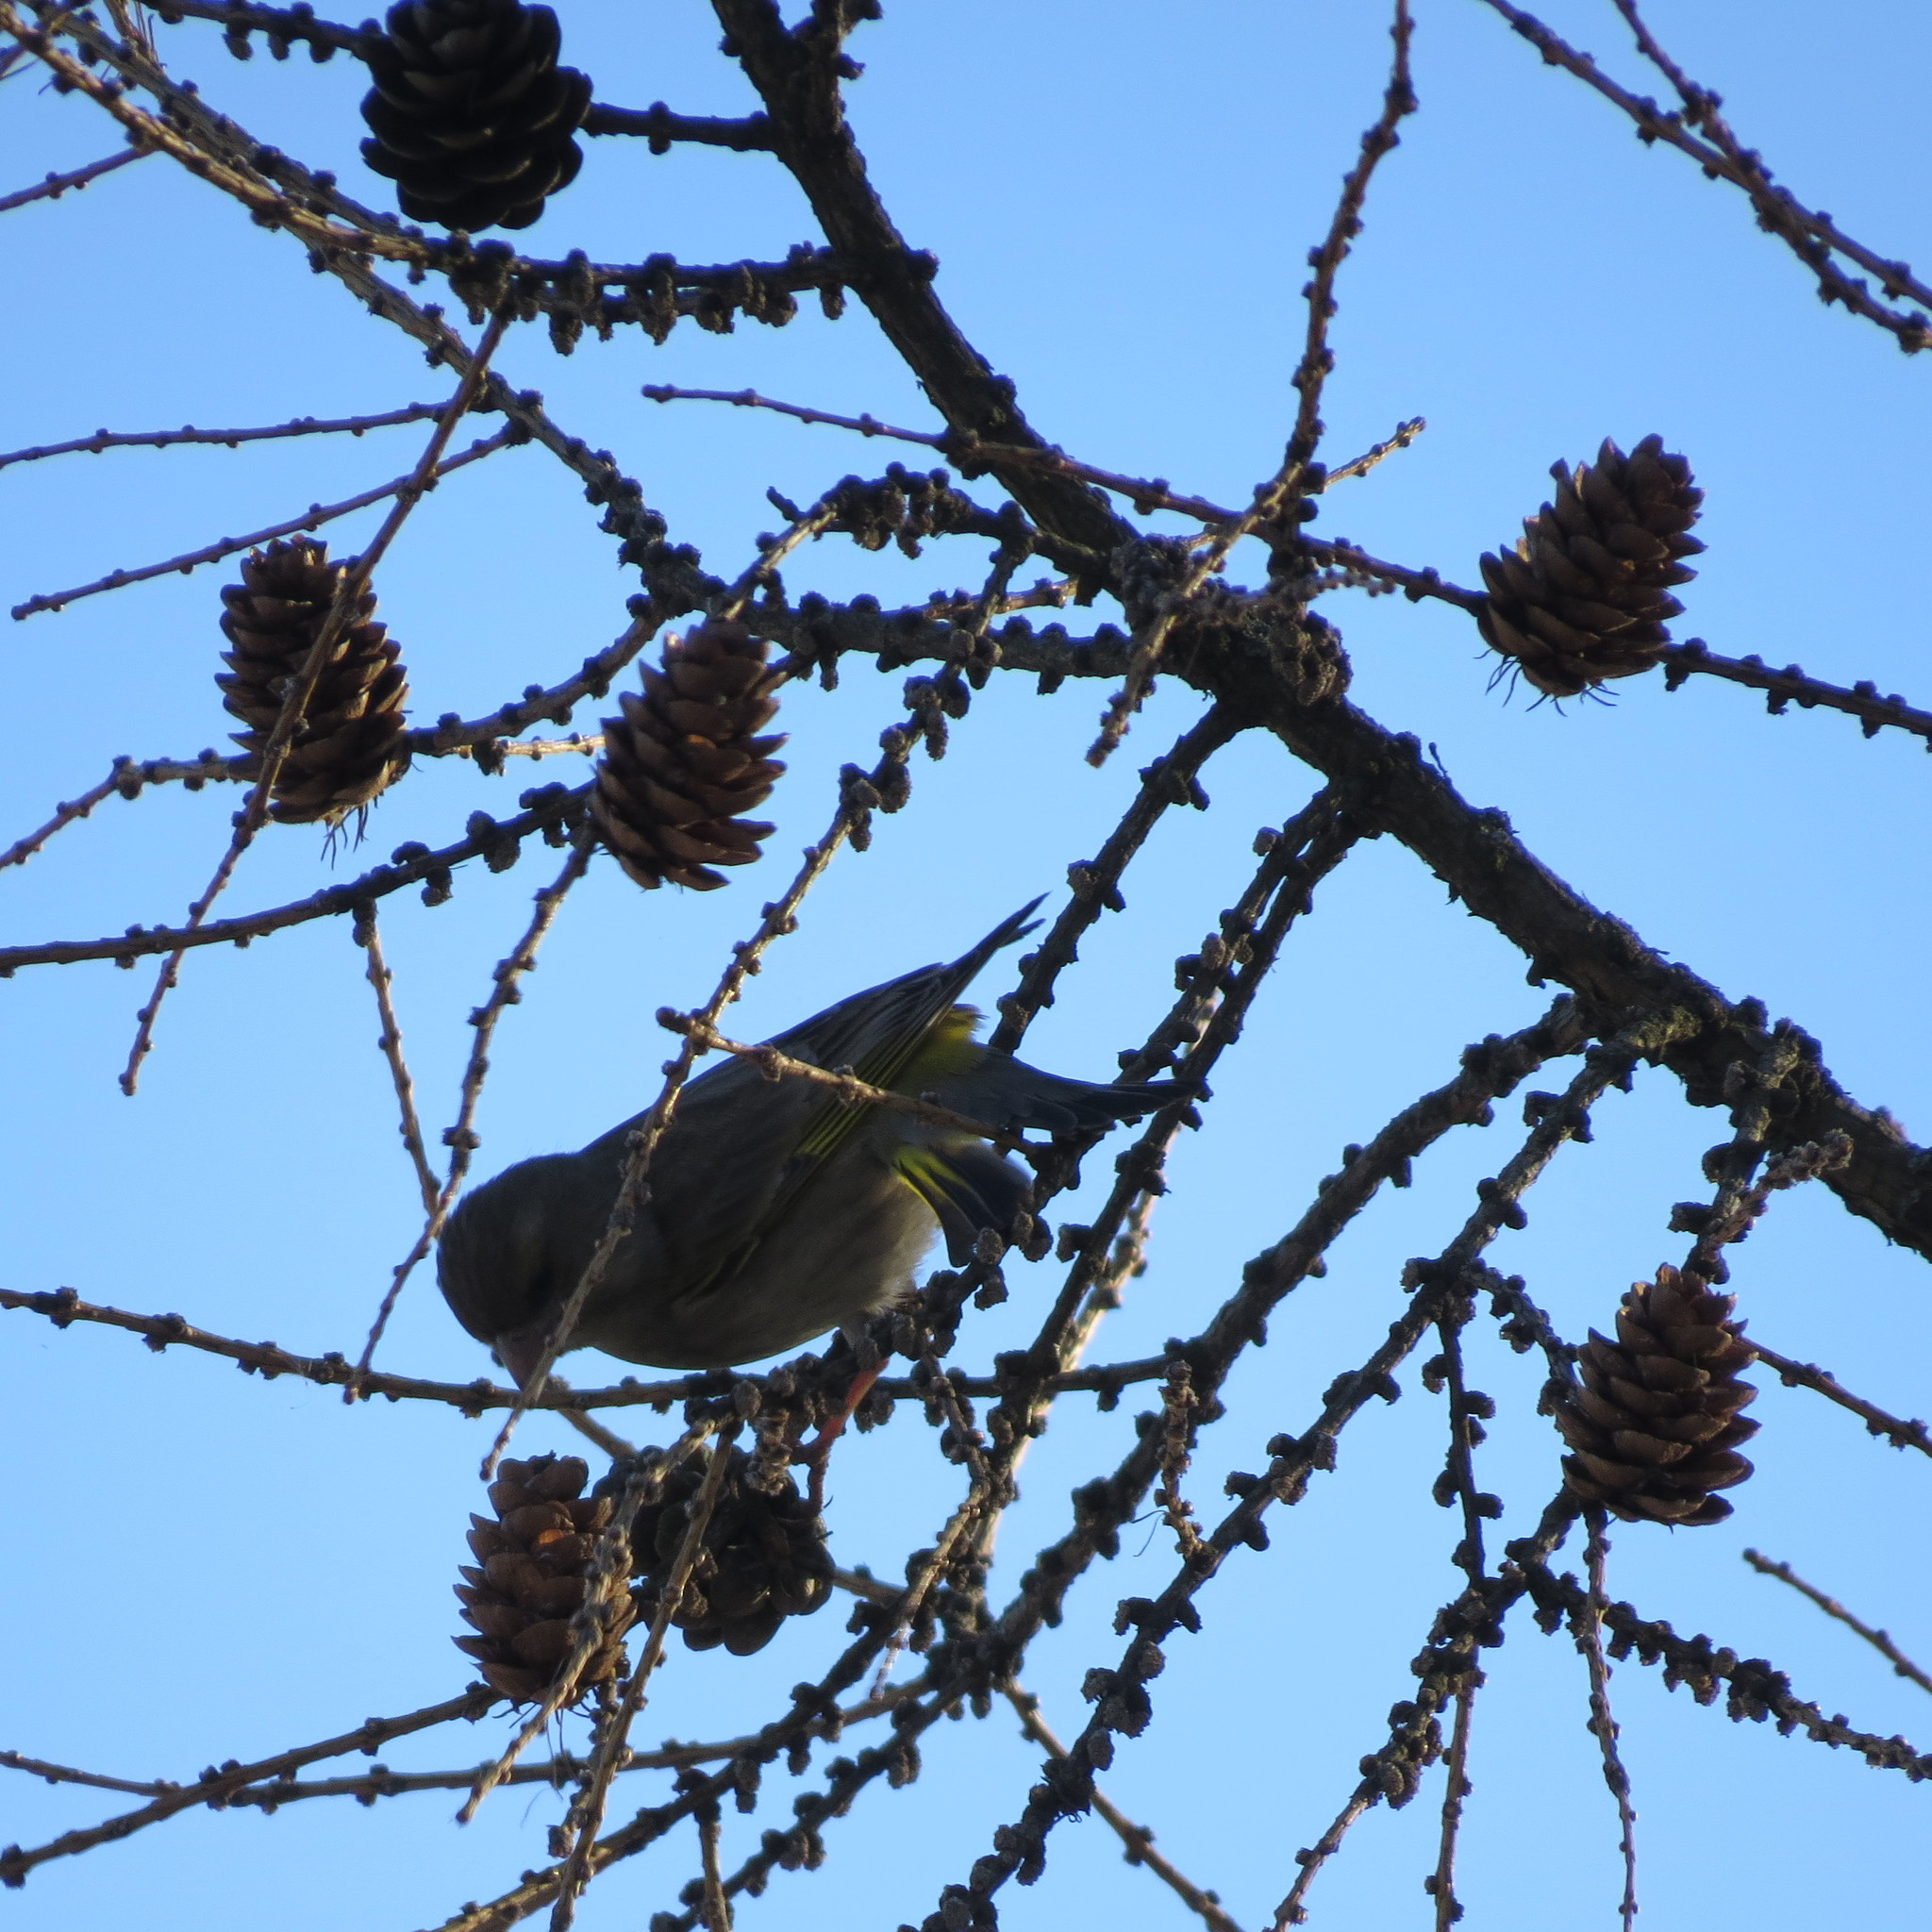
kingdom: Plantae
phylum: Tracheophyta
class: Liliopsida
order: Poales
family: Poaceae
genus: Chloris
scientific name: Chloris chloris
